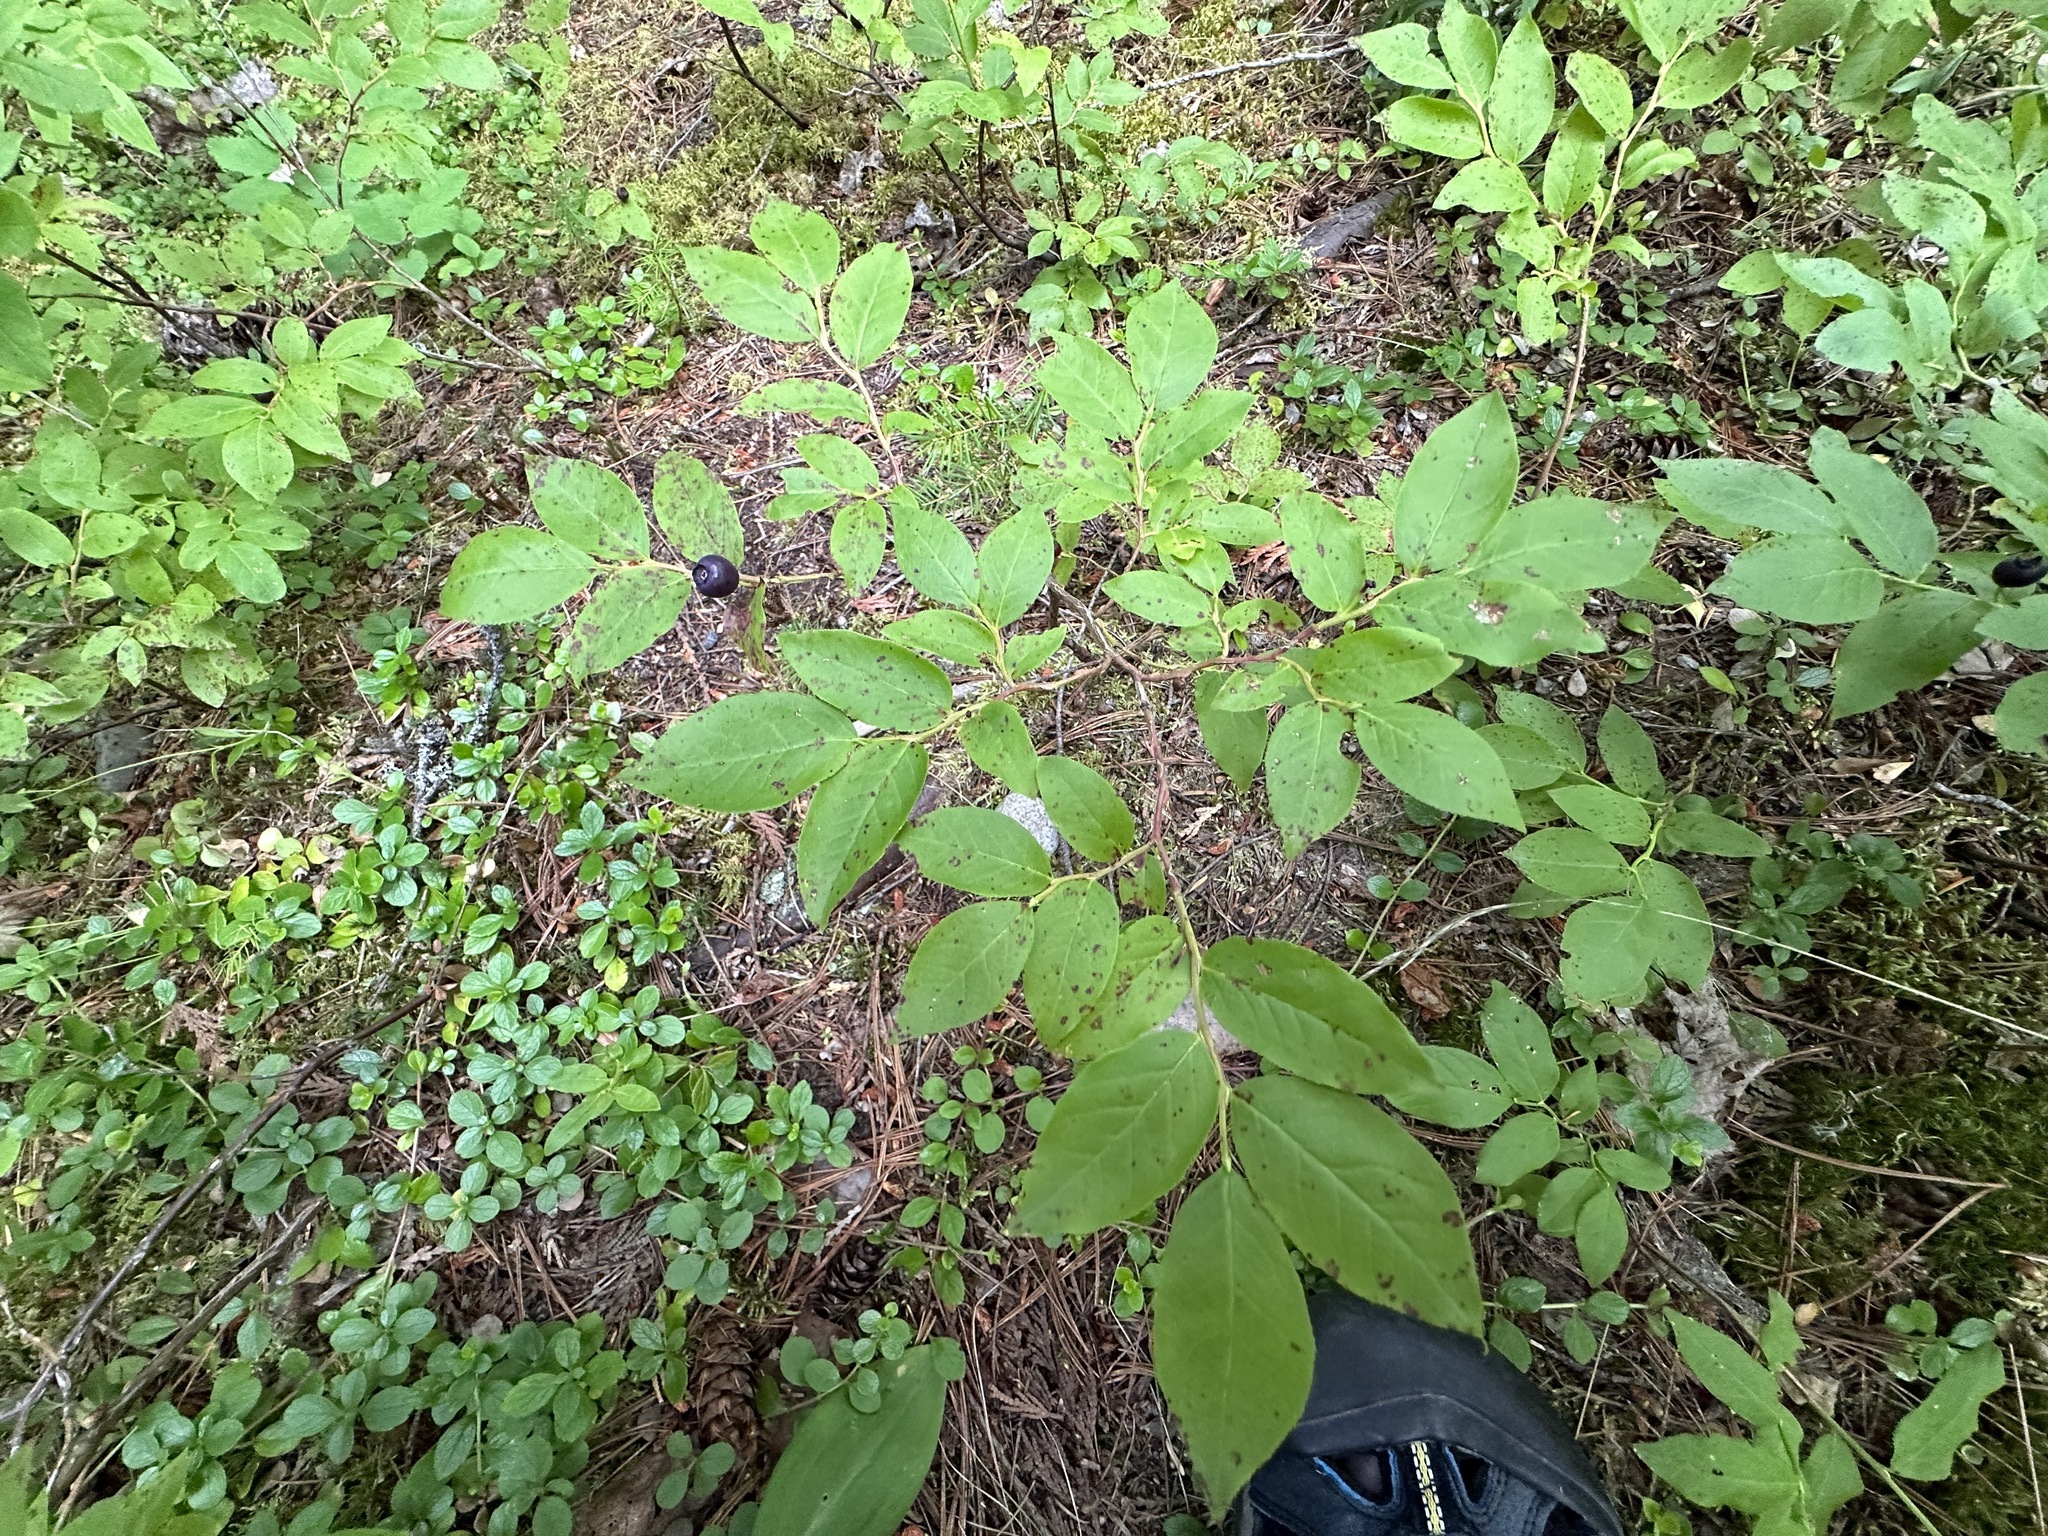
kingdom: Plantae
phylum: Tracheophyta
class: Magnoliopsida
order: Ericales
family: Ericaceae
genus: Vaccinium
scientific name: Vaccinium membranaceum
